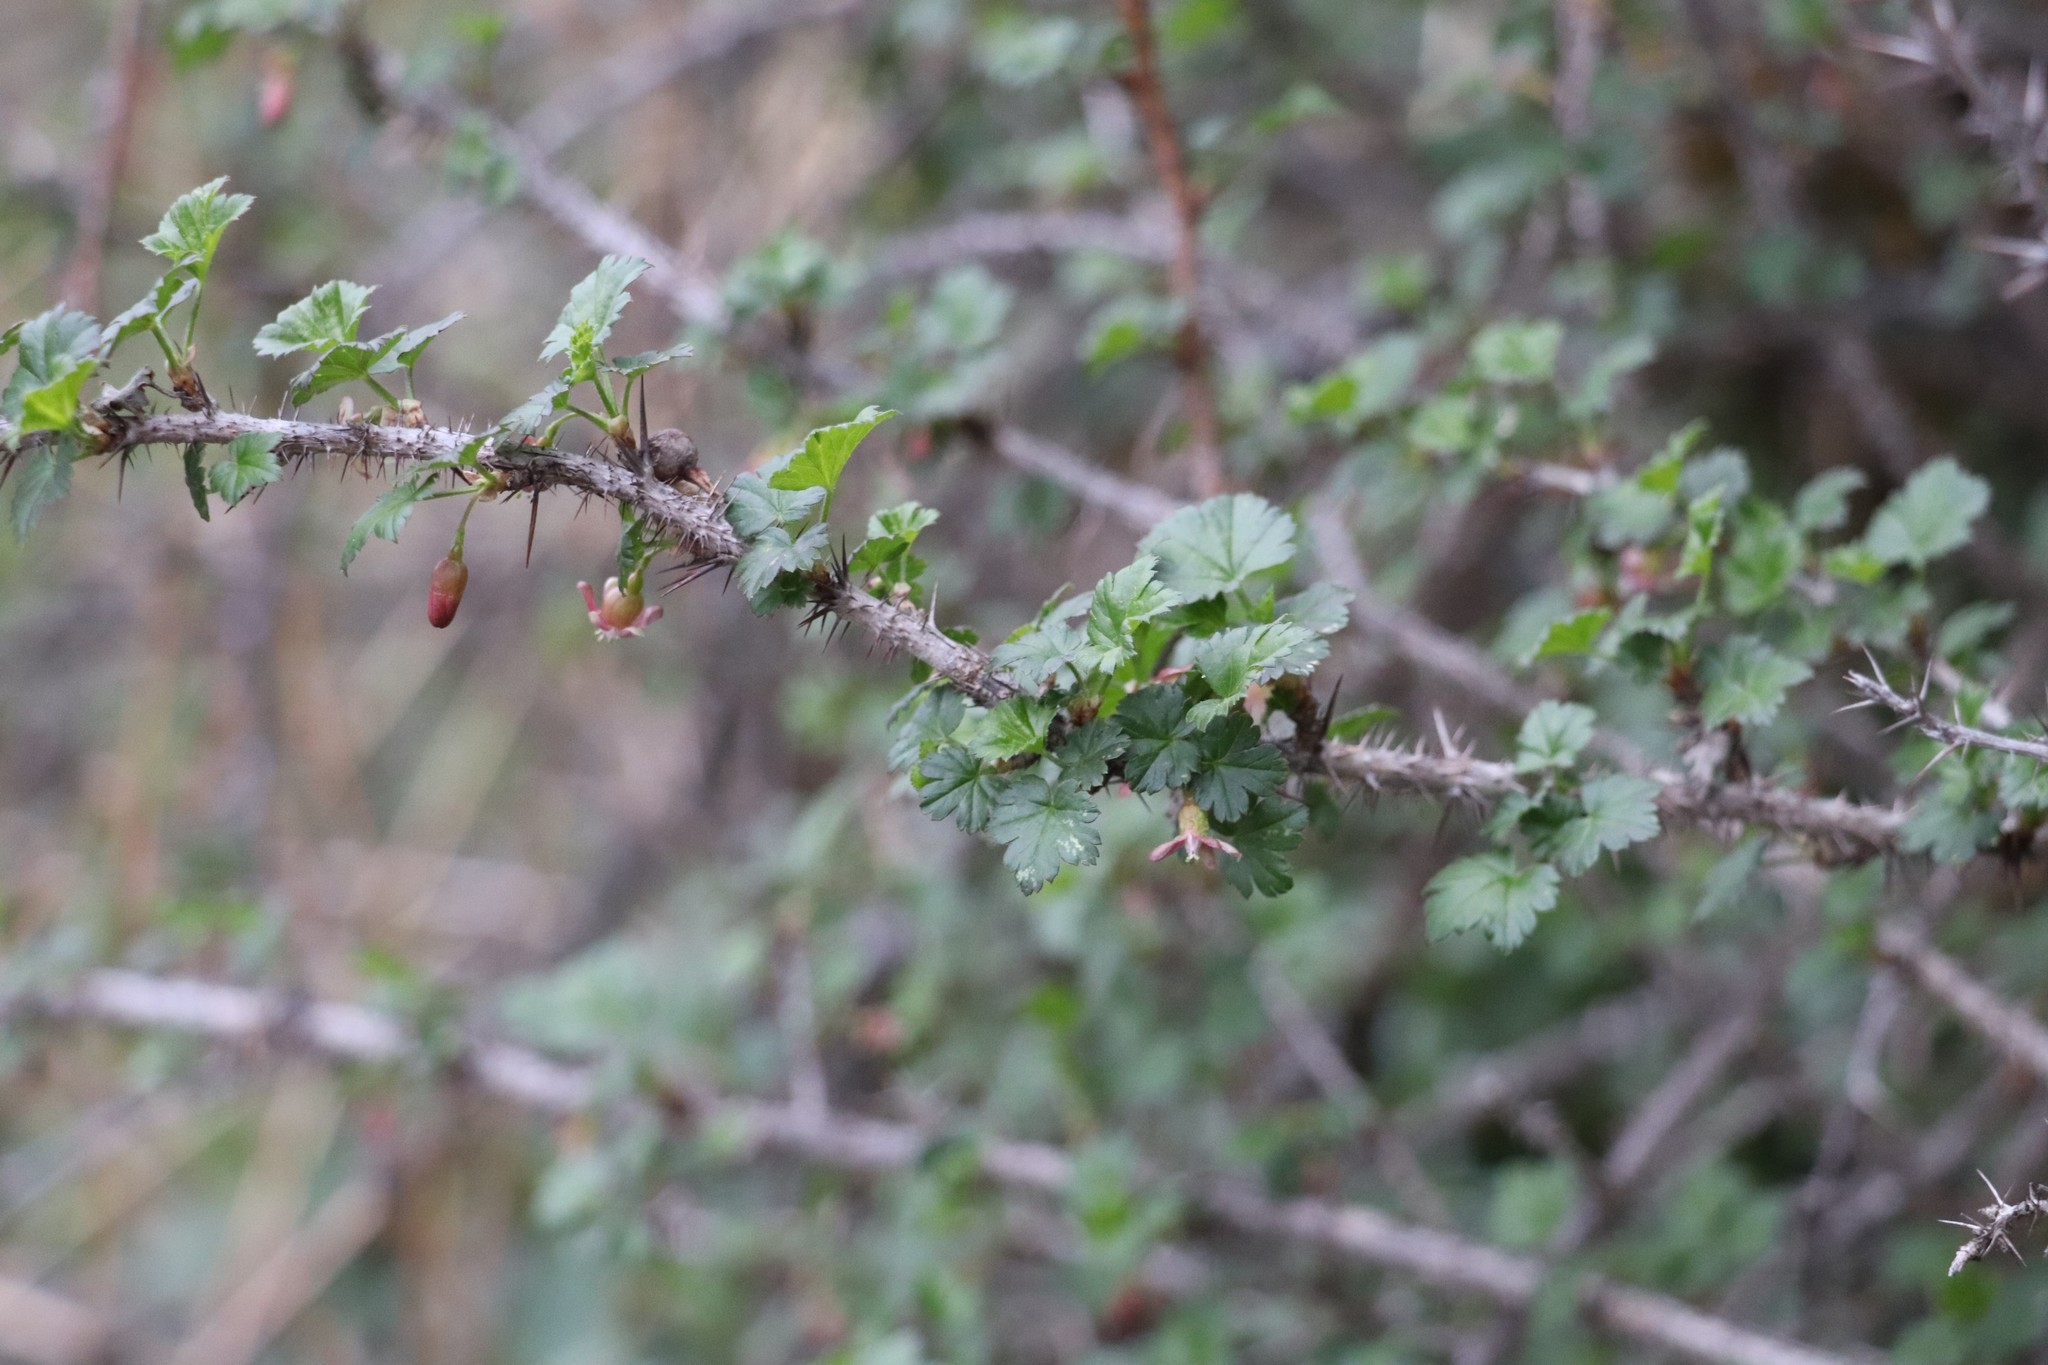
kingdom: Plantae
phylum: Tracheophyta
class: Magnoliopsida
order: Saxifragales
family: Grossulariaceae
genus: Ribes
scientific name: Ribes aciculare
